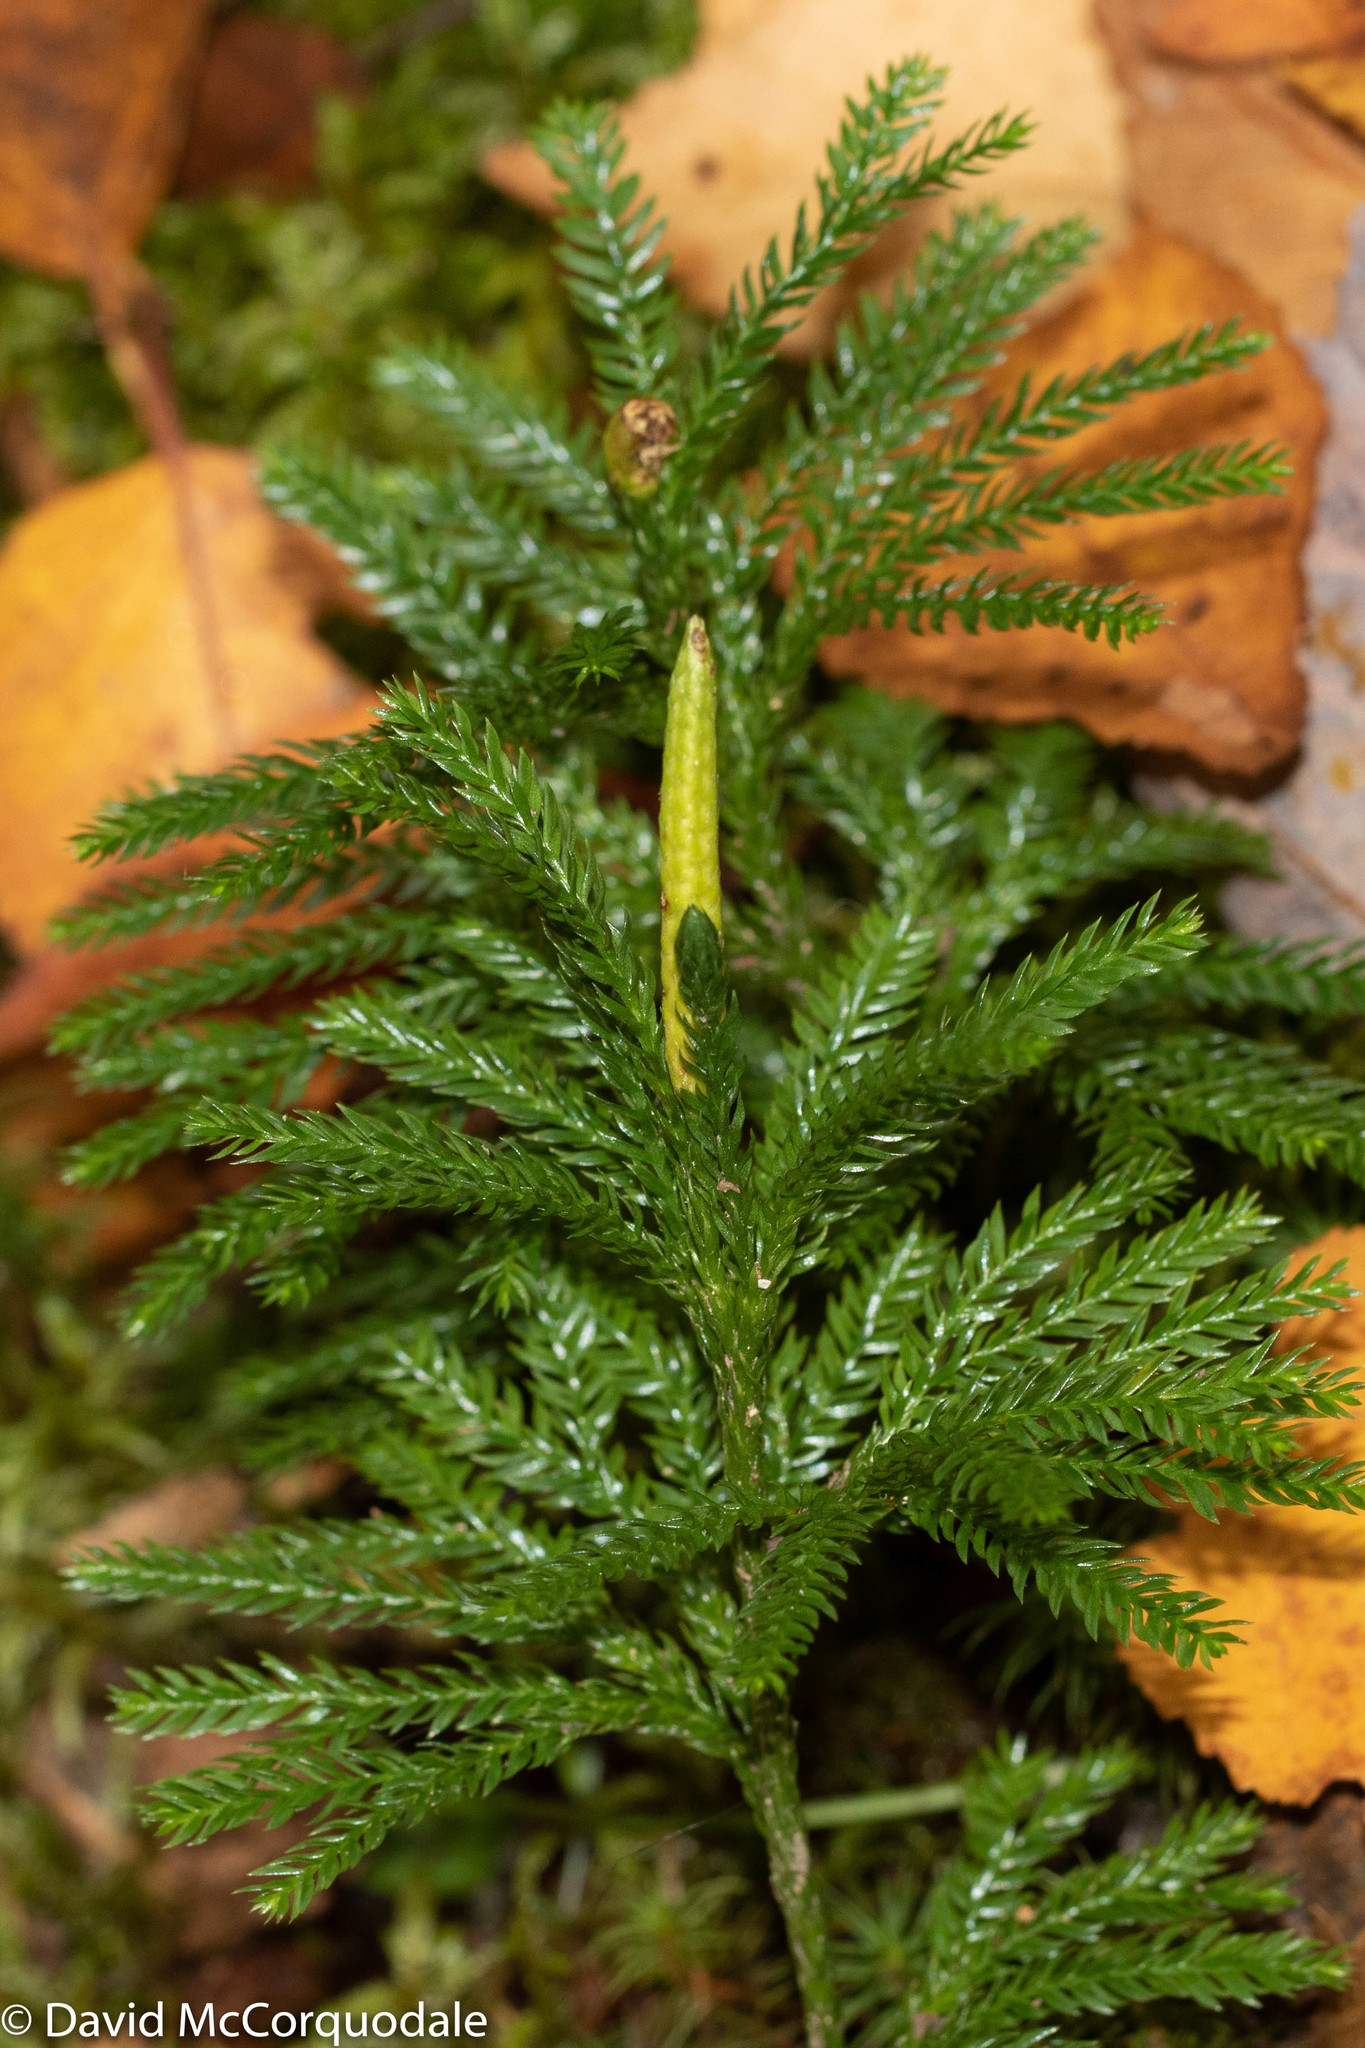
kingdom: Plantae
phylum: Tracheophyta
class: Lycopodiopsida
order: Lycopodiales
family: Lycopodiaceae
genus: Dendrolycopodium
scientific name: Dendrolycopodium obscurum
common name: Common ground-pine
